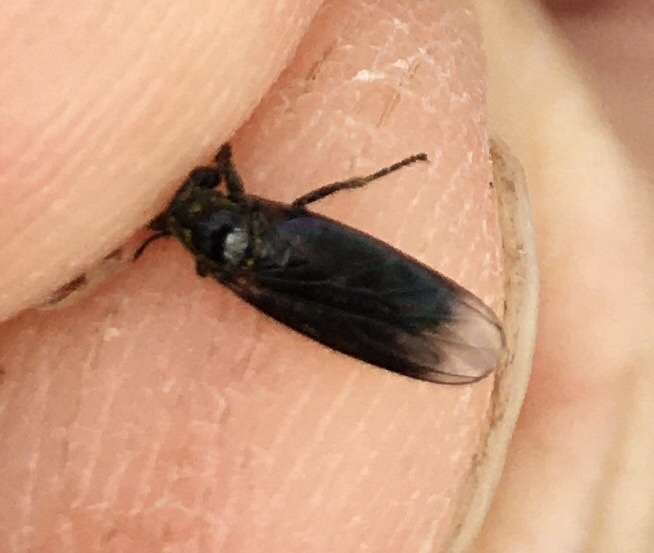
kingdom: Animalia
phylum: Arthropoda
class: Insecta
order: Diptera
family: Bibionidae
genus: Dilophus
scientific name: Dilophus febrilis
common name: Fever fly
